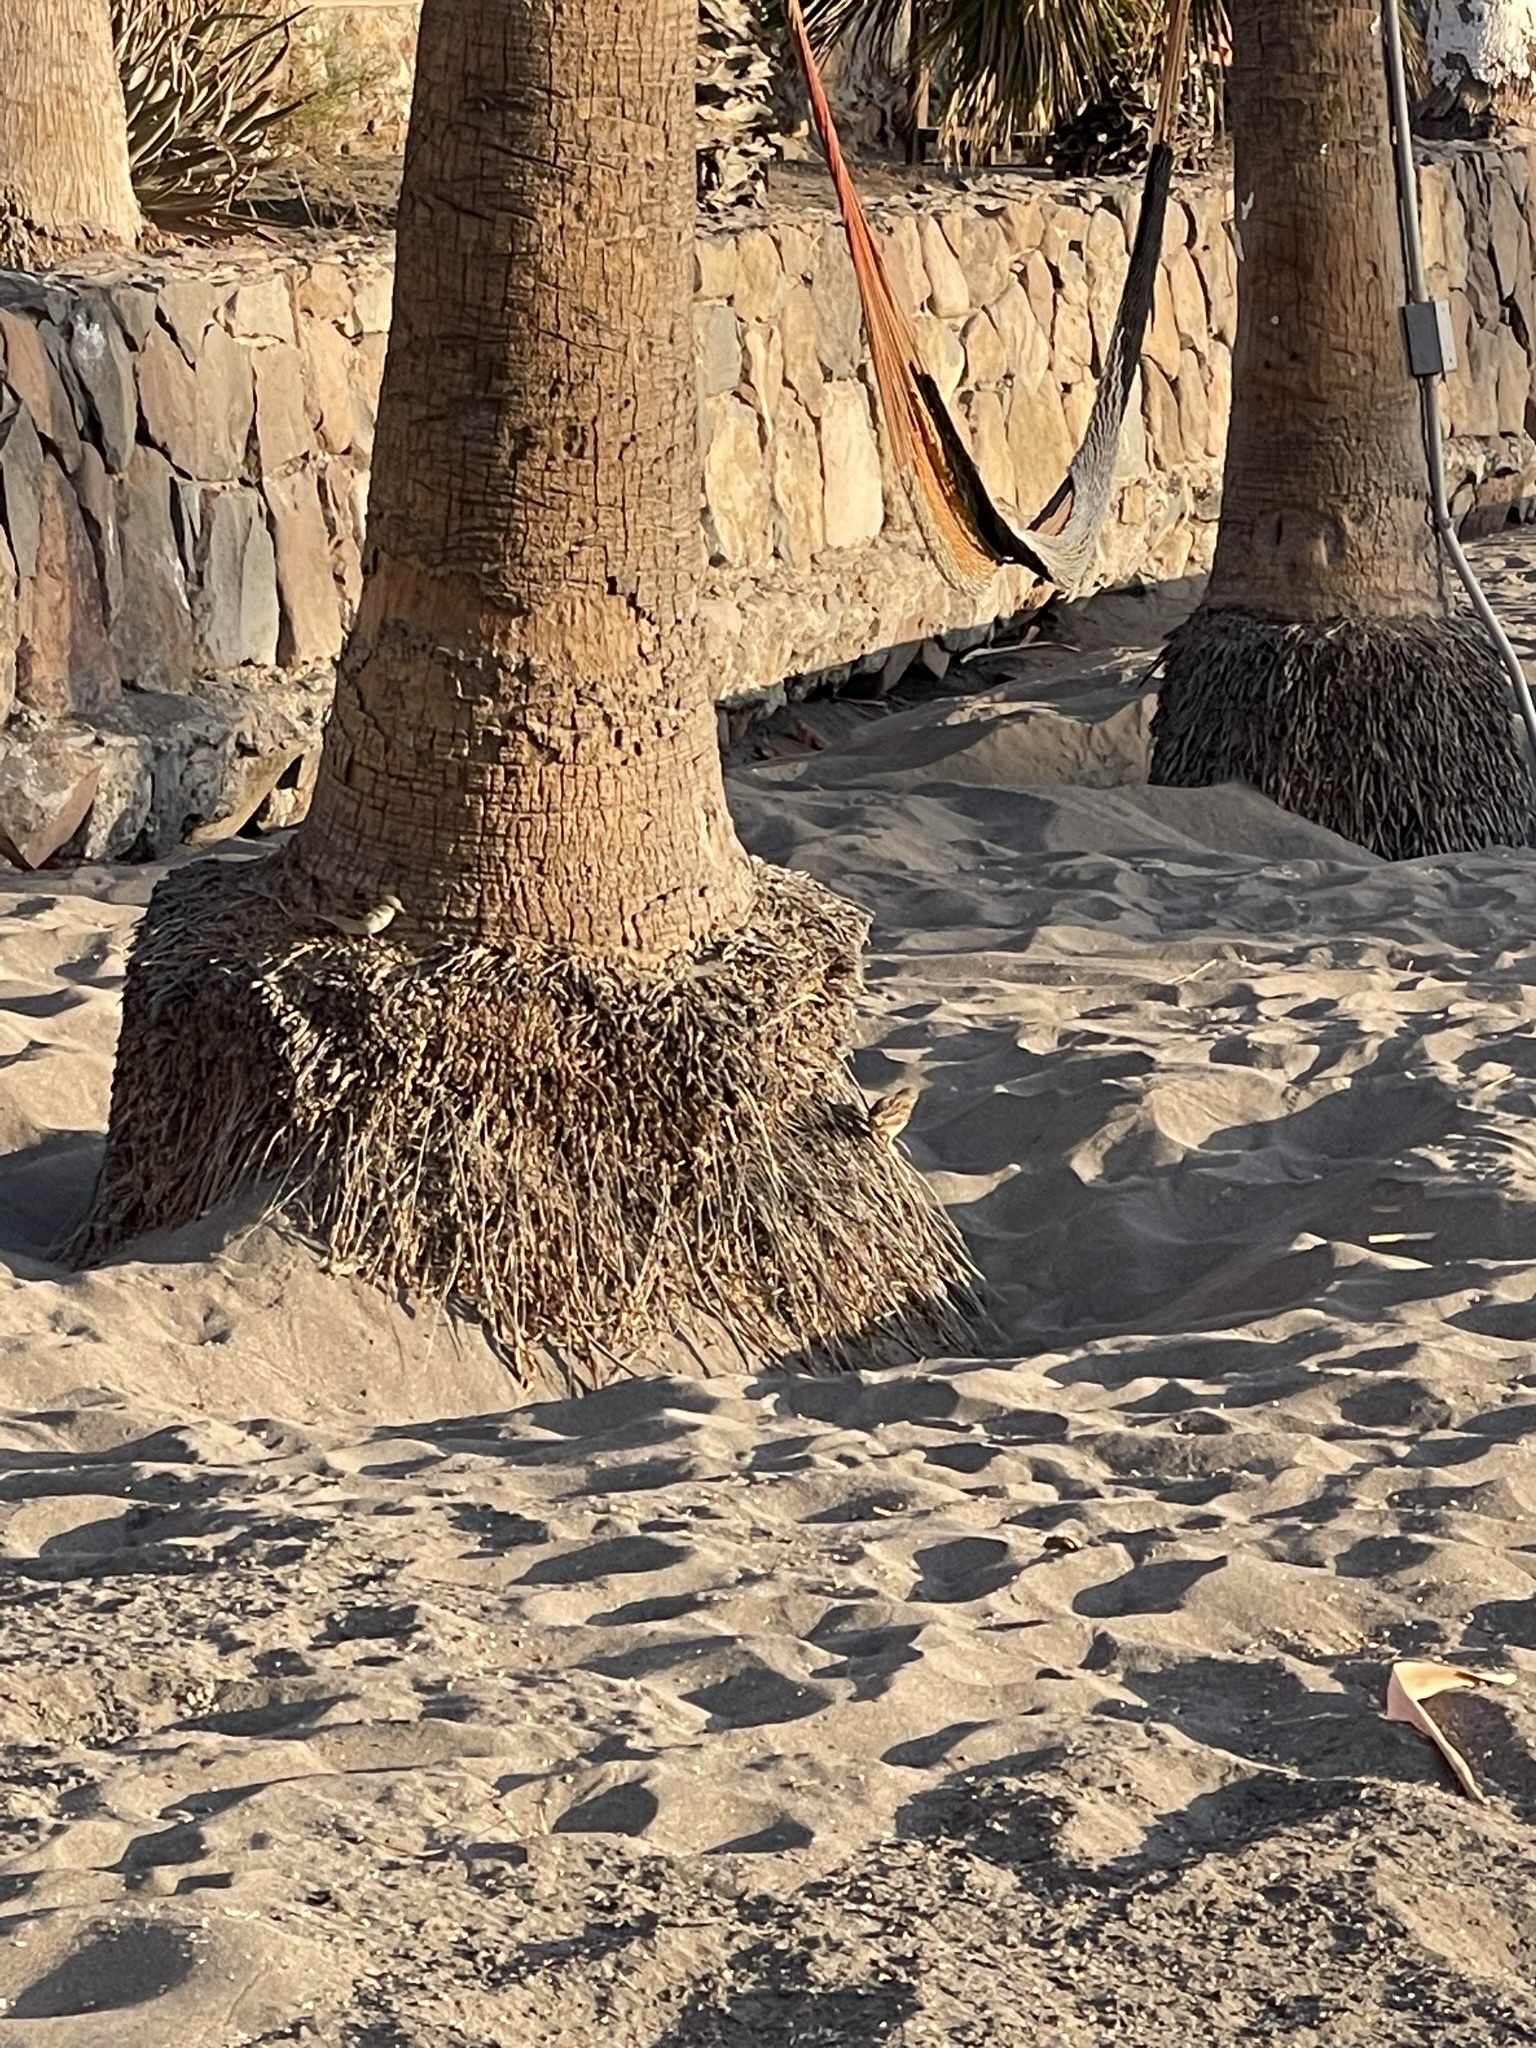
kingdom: Animalia
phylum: Chordata
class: Aves
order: Passeriformes
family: Passeridae
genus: Passer
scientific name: Passer domesticus
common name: House sparrow
